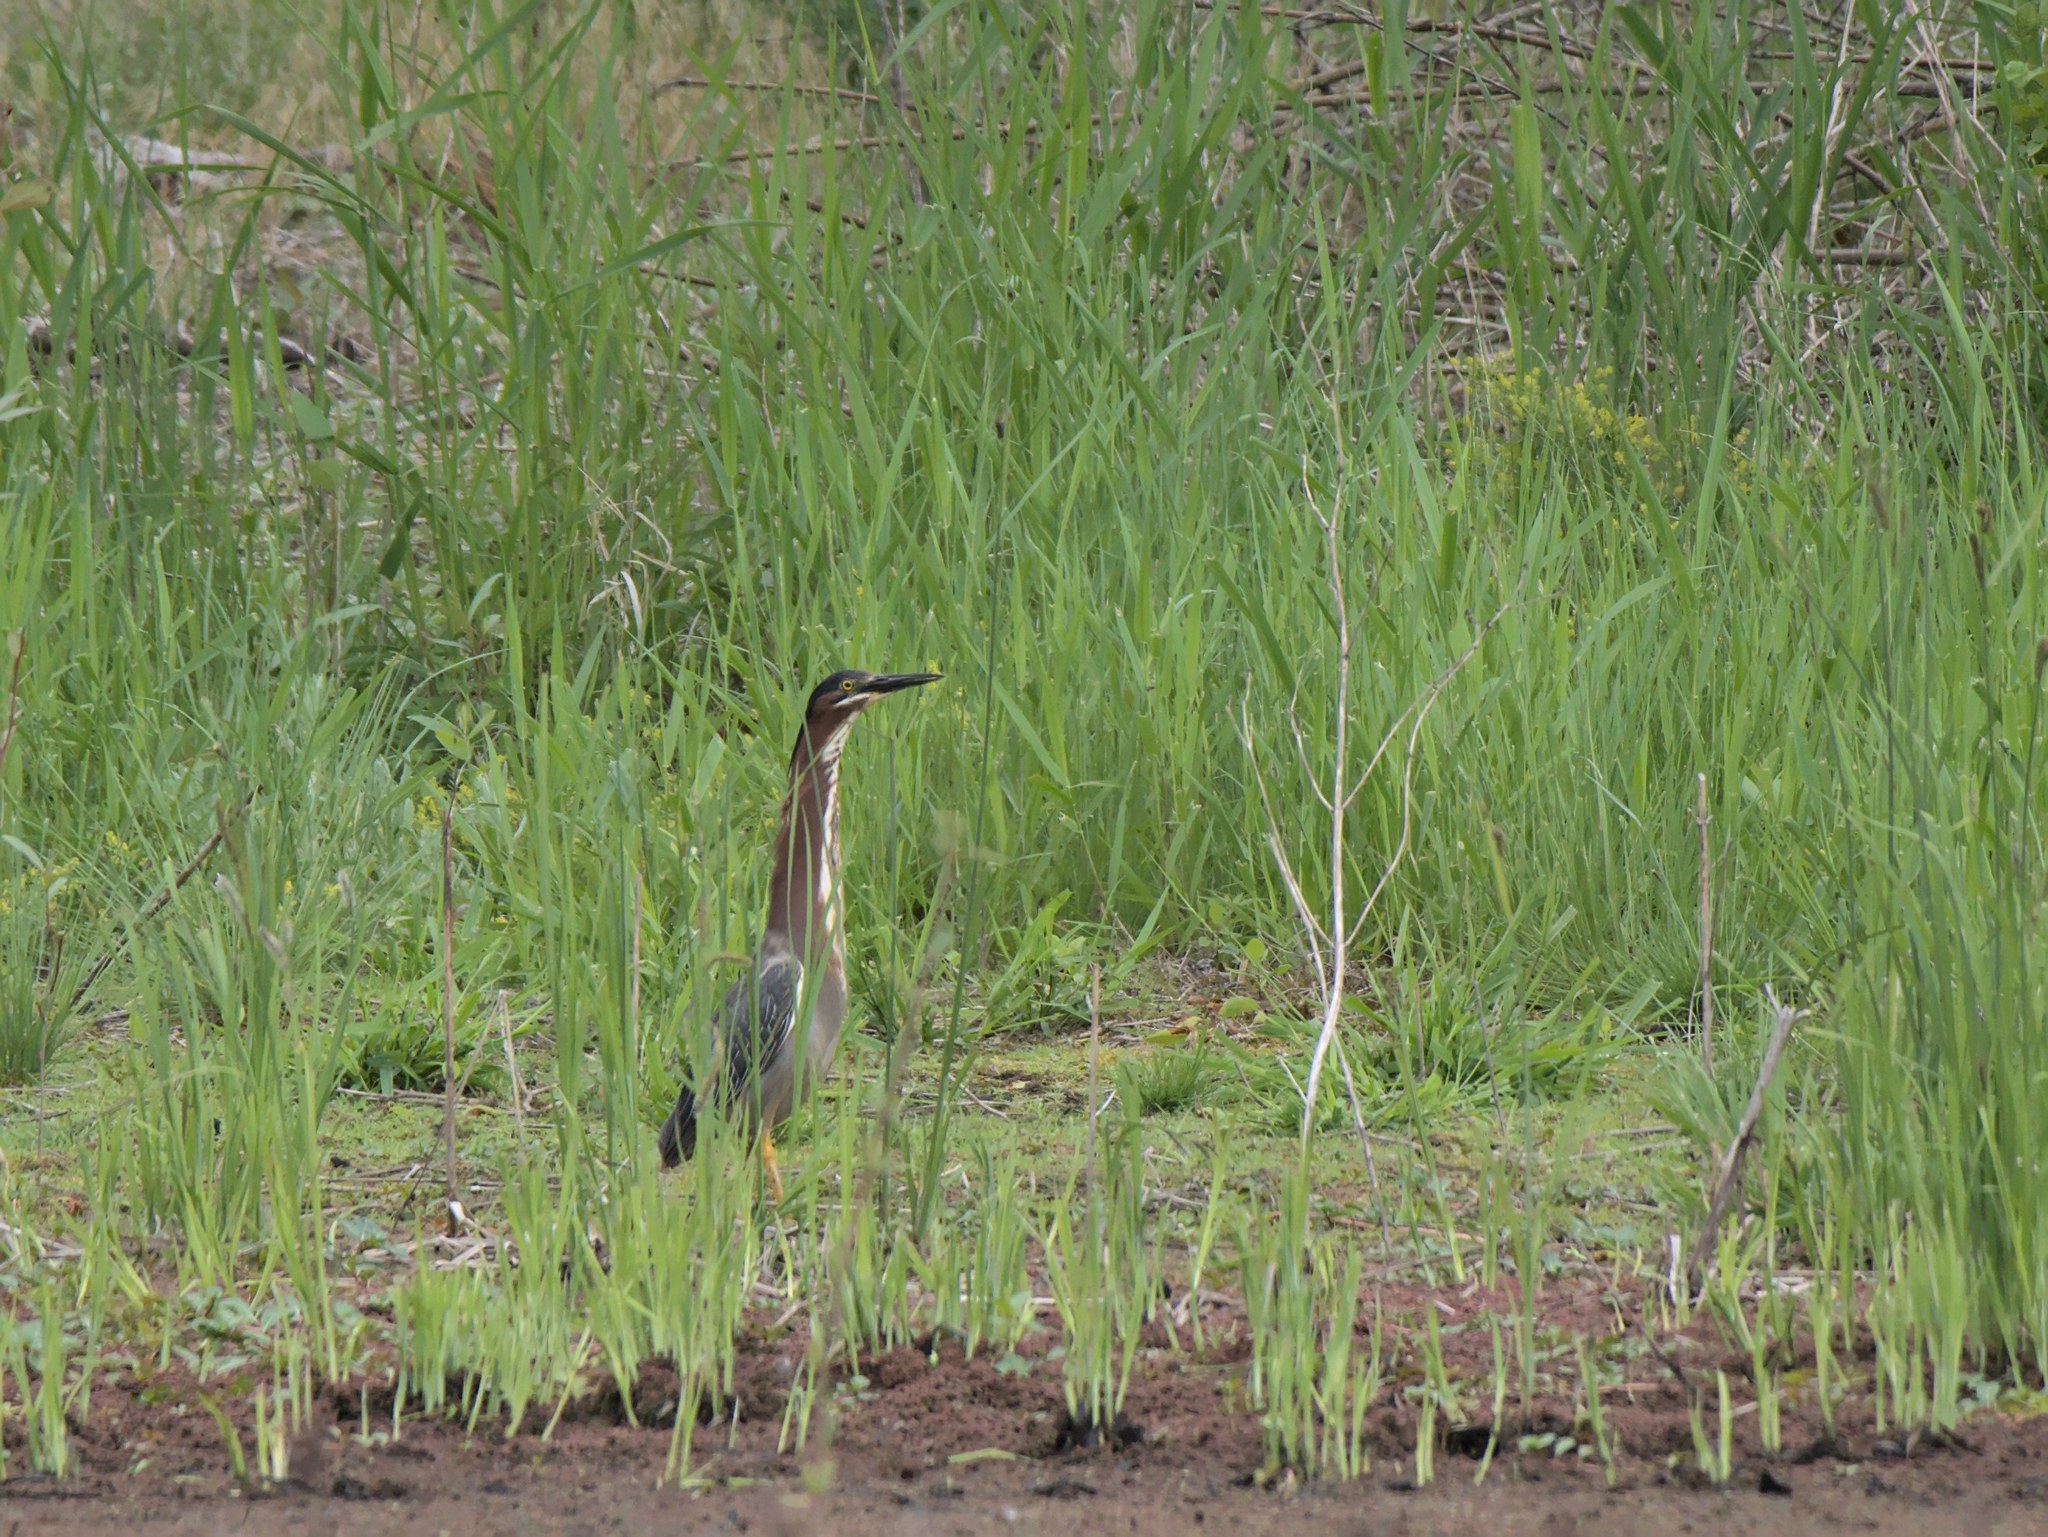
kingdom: Animalia
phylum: Chordata
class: Aves
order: Pelecaniformes
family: Ardeidae
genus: Butorides
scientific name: Butorides virescens
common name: Green heron
